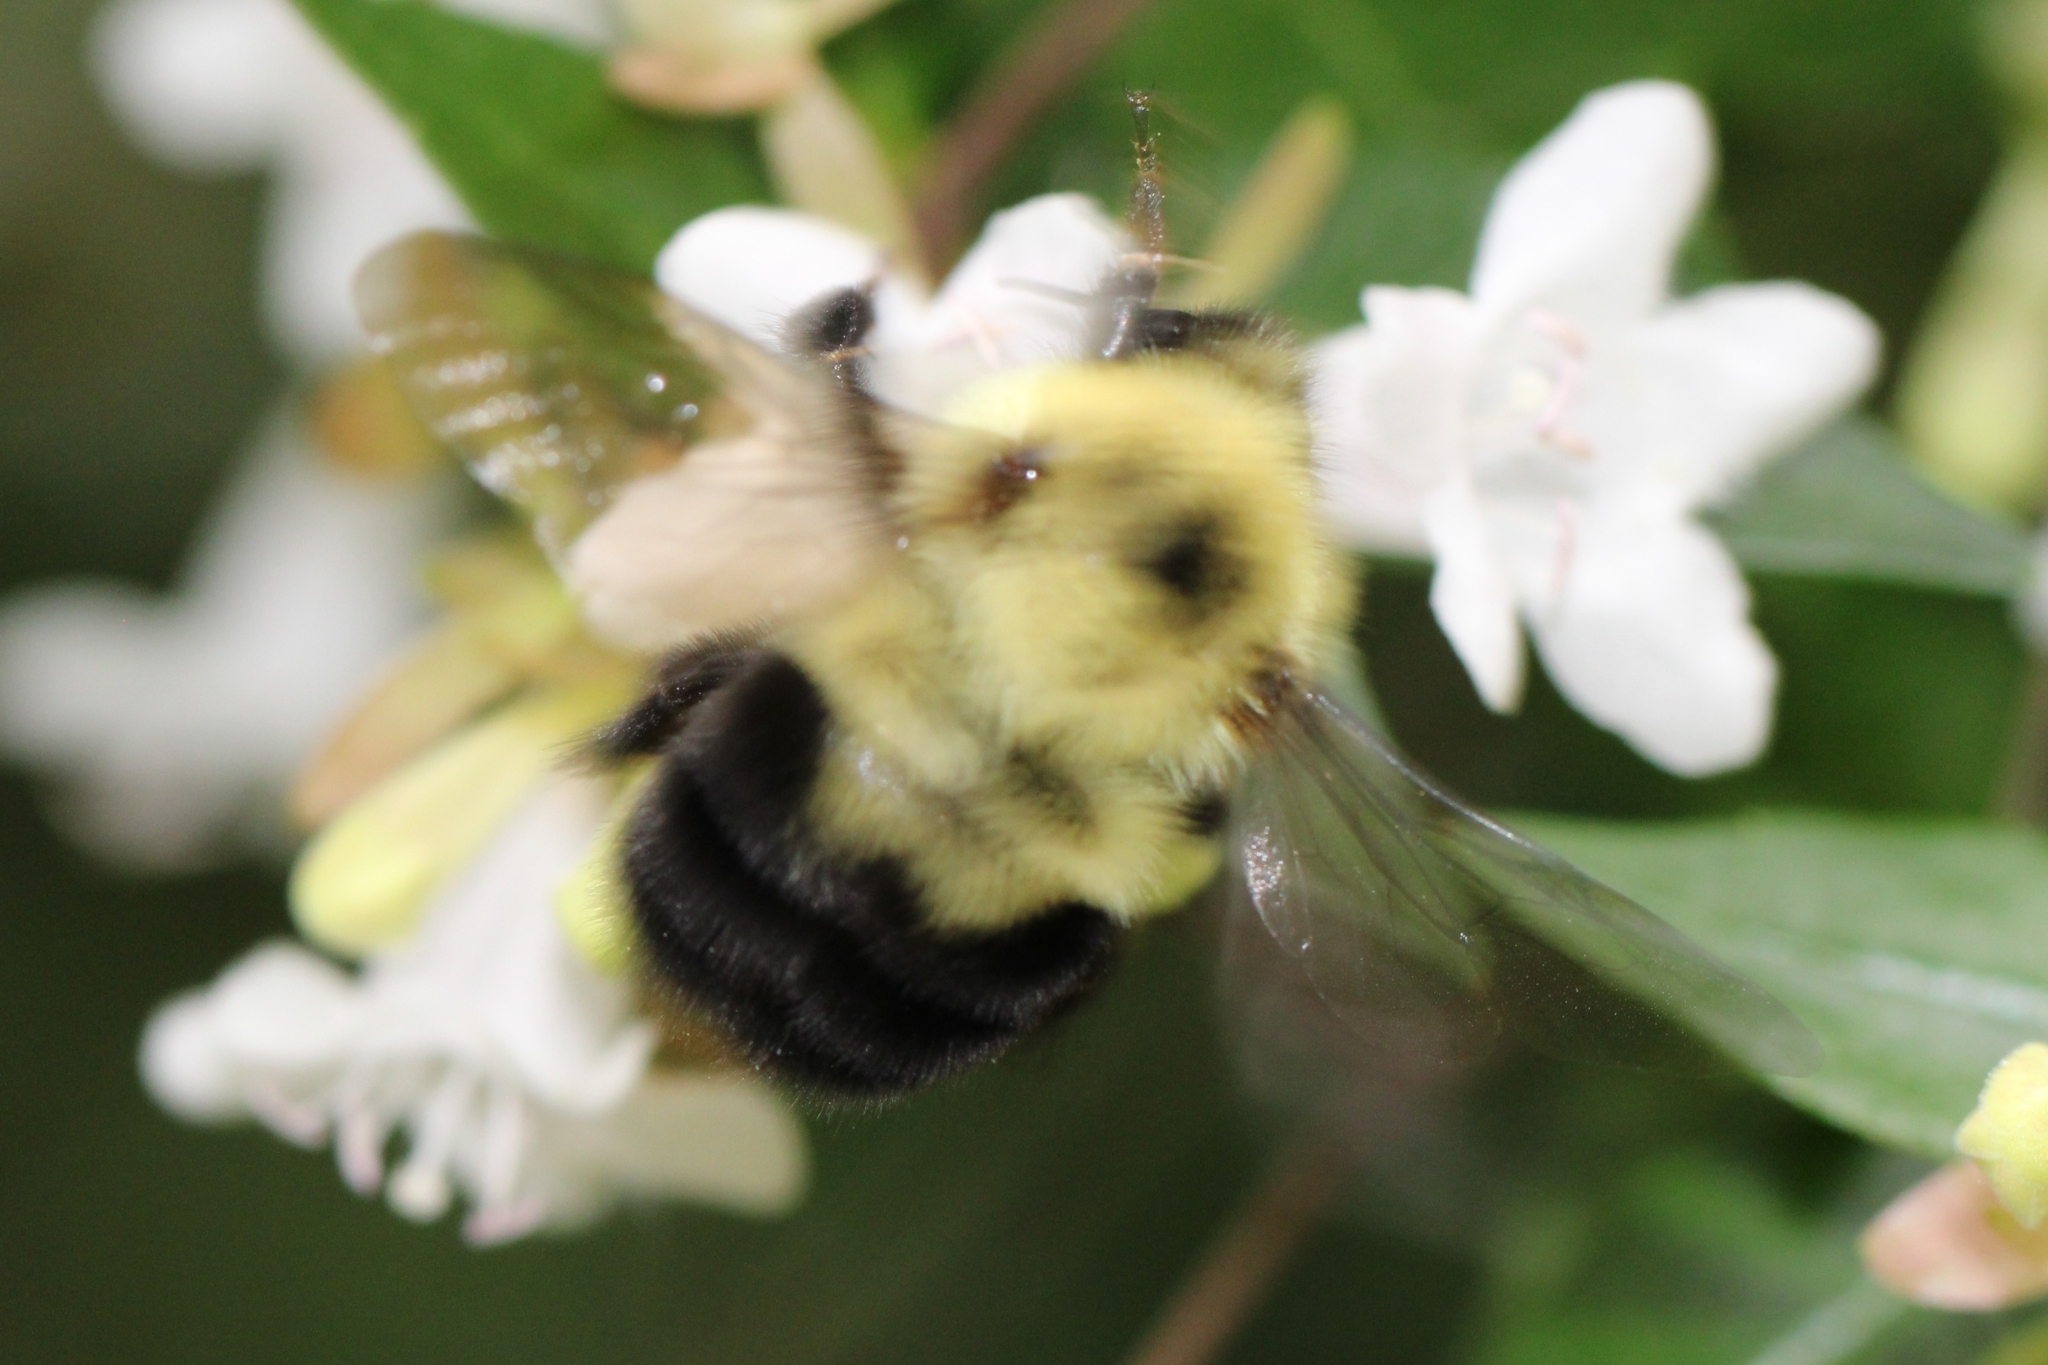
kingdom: Animalia
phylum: Arthropoda
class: Insecta
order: Hymenoptera
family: Apidae
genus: Bombus
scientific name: Bombus bimaculatus
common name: Two-spotted bumble bee
